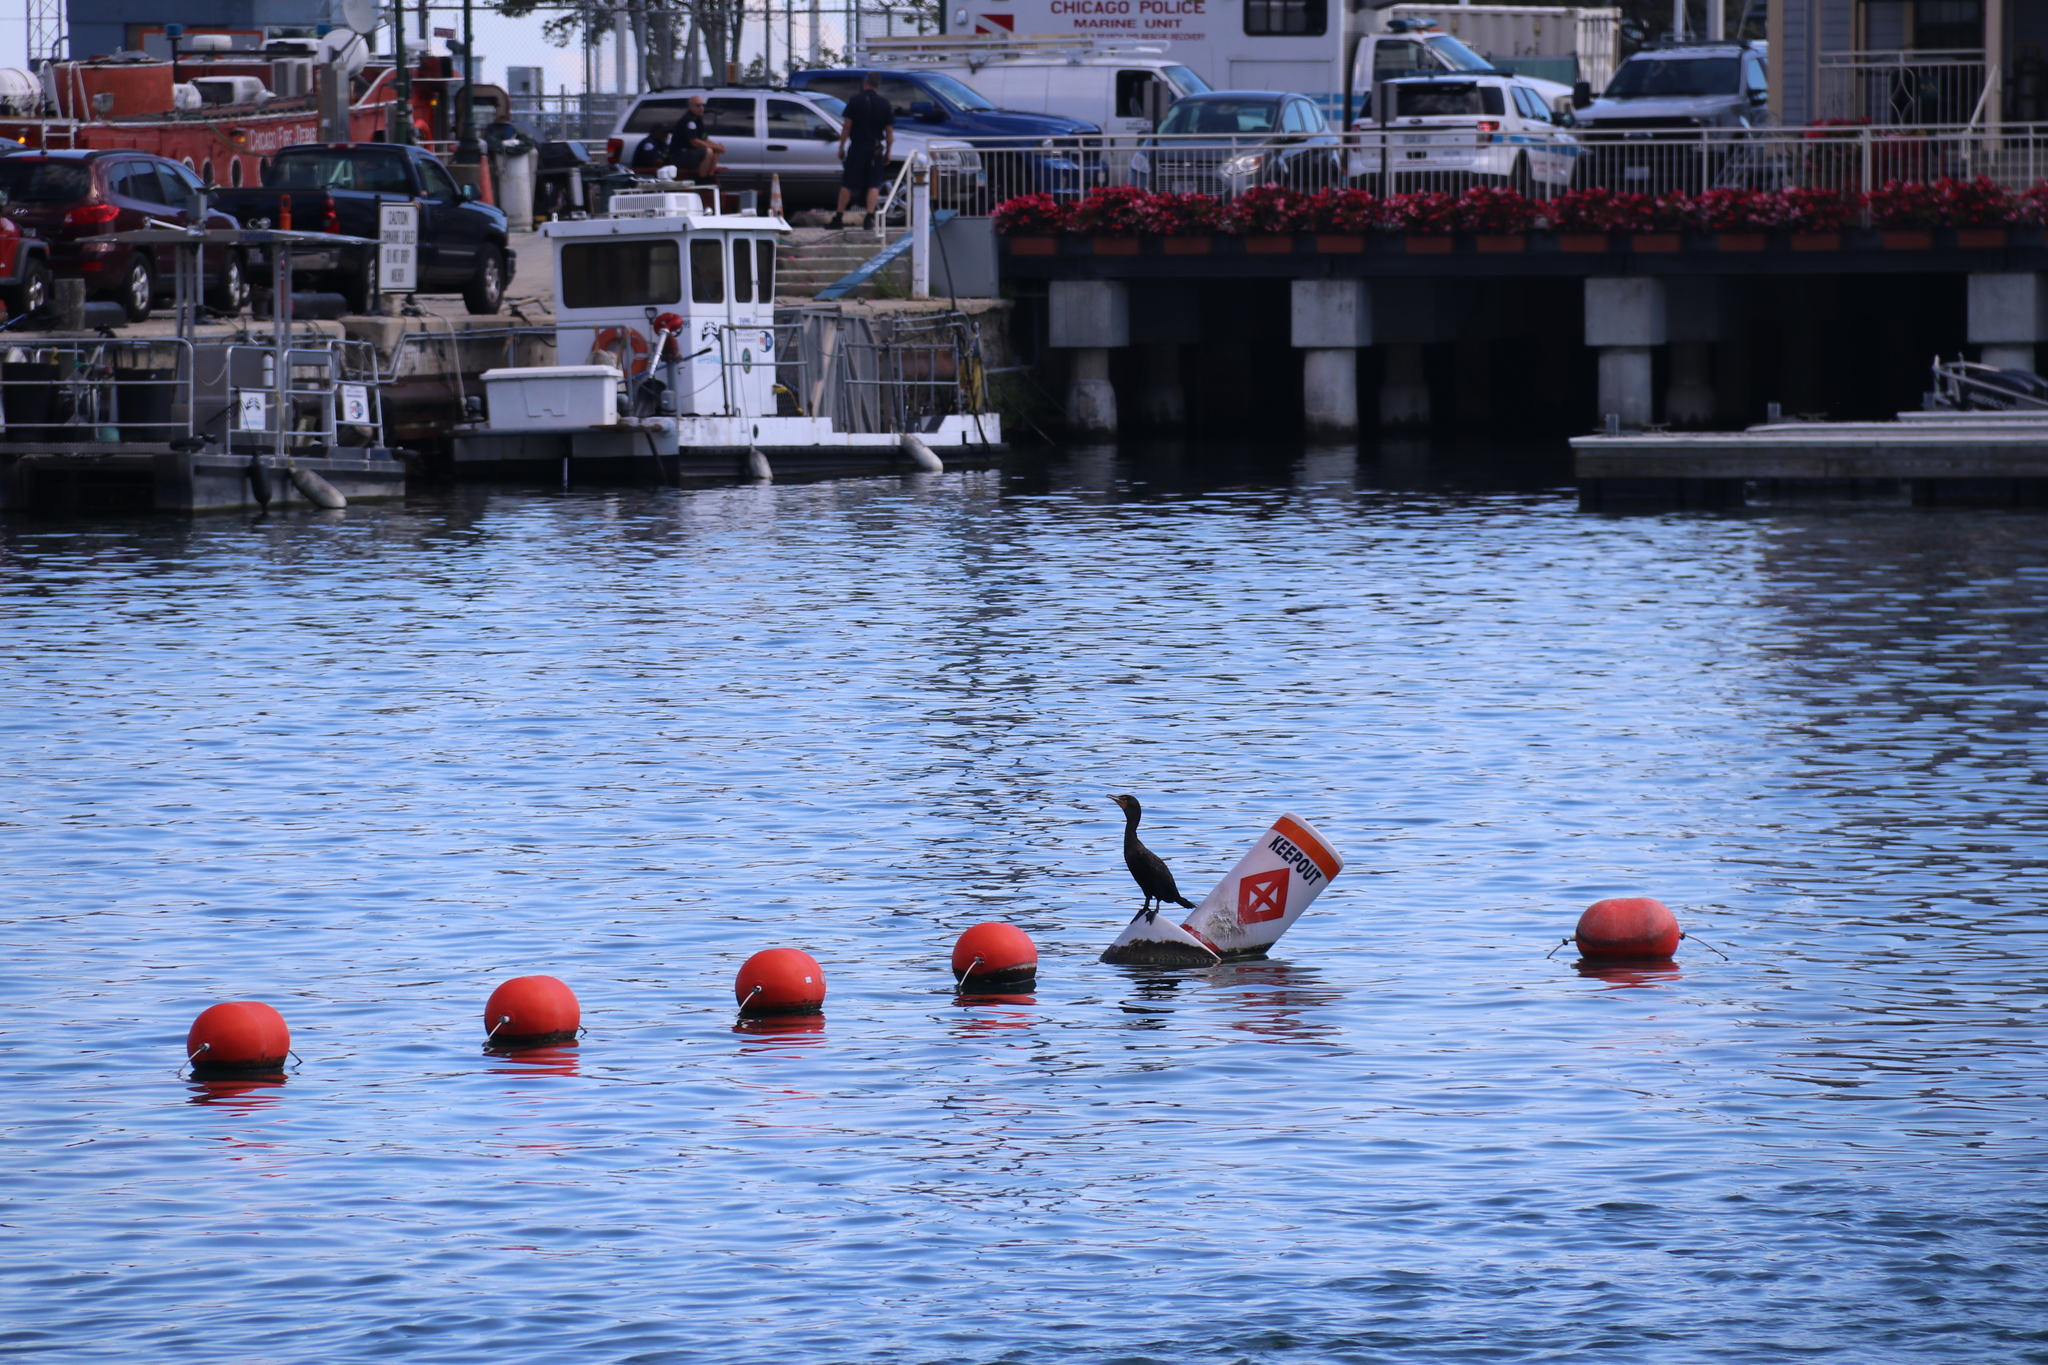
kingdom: Animalia
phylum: Chordata
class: Aves
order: Suliformes
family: Phalacrocoracidae
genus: Phalacrocorax
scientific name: Phalacrocorax auritus
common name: Double-crested cormorant
